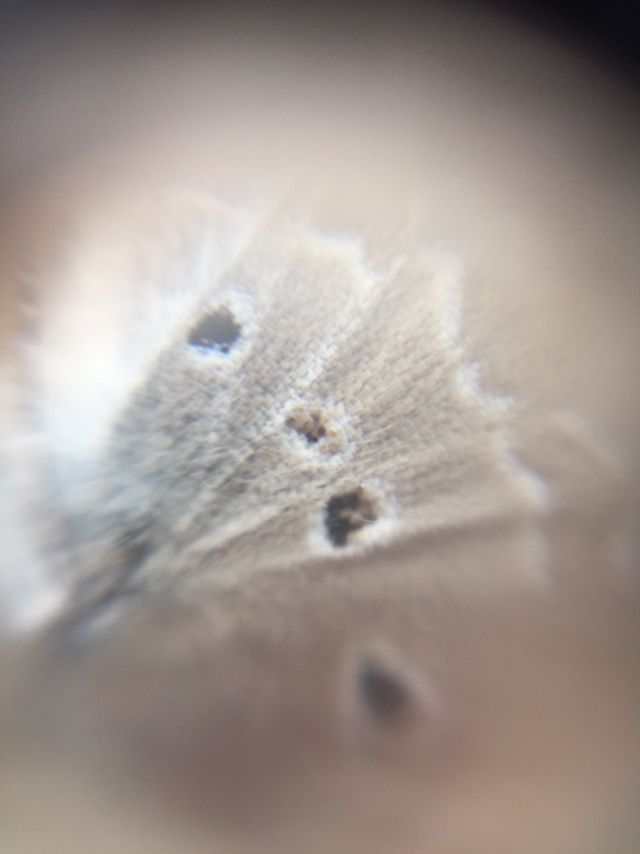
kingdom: Animalia
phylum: Arthropoda
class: Insecta
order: Lepidoptera
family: Lycaenidae
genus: Luthrodes
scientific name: Luthrodes pandava
